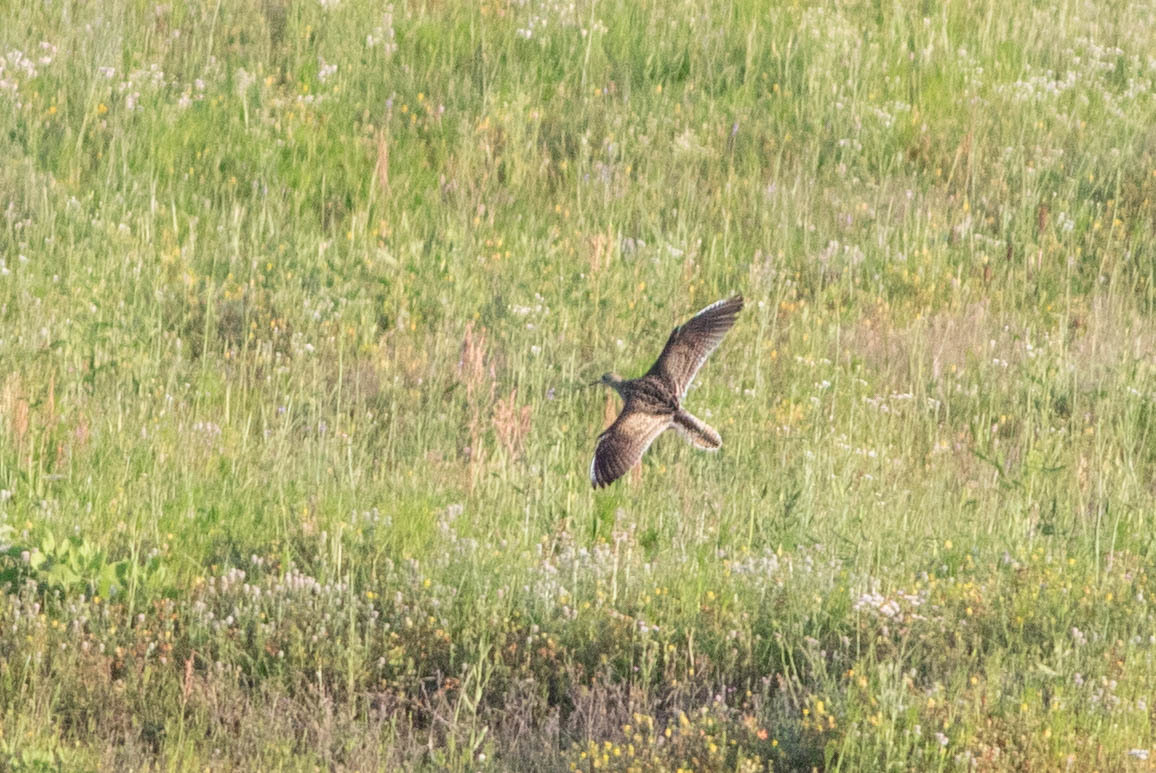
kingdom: Animalia
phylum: Chordata
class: Aves
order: Charadriiformes
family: Scolopacidae
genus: Bartramia
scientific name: Bartramia longicauda
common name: Upland sandpiper
